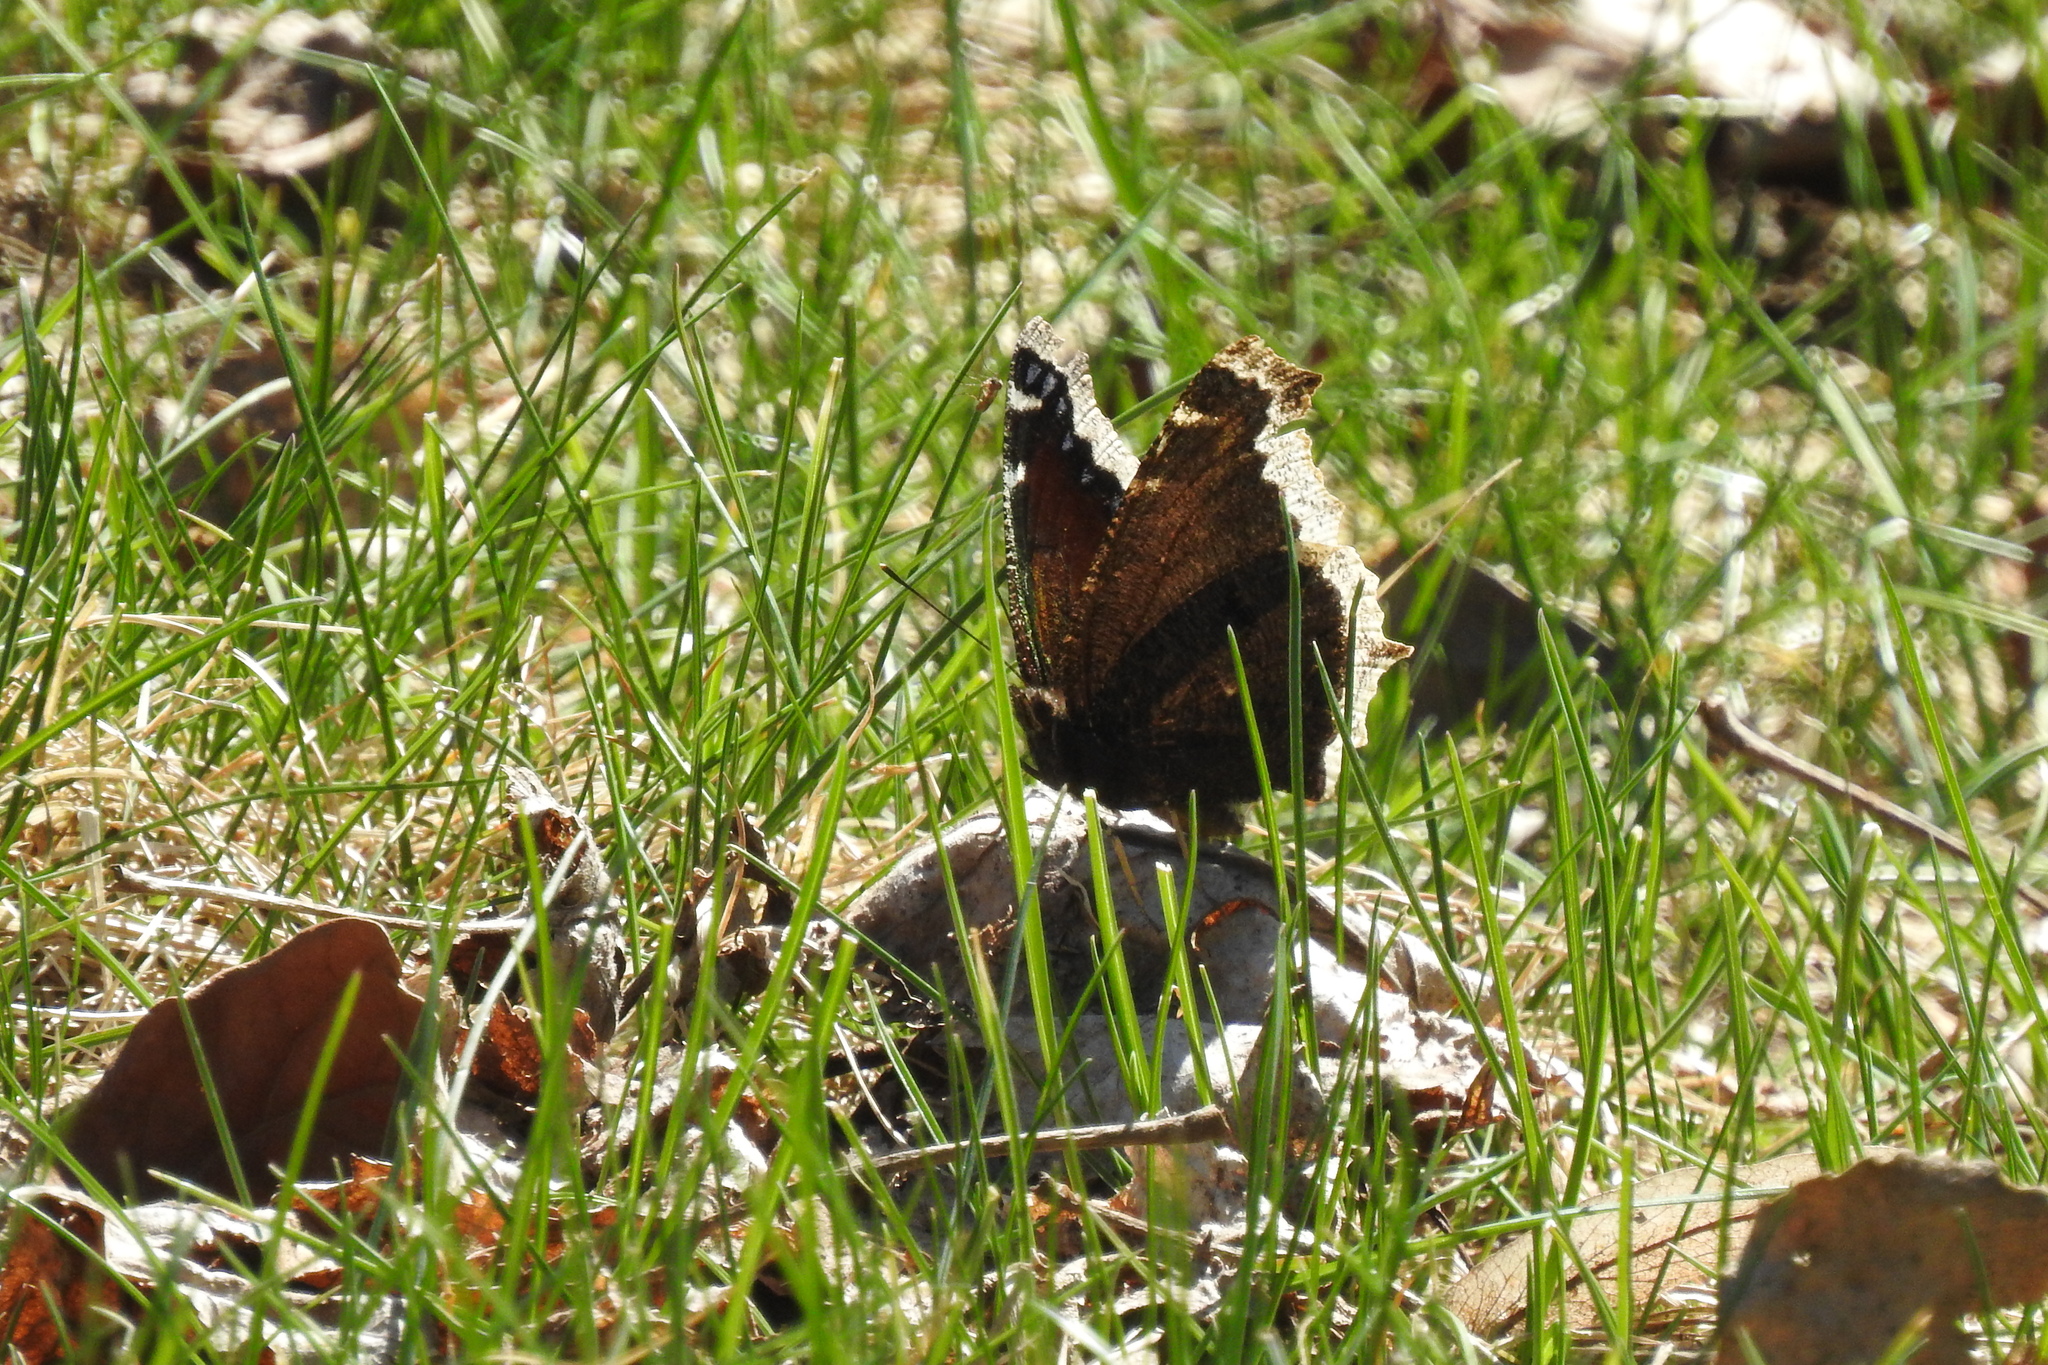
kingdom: Animalia
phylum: Arthropoda
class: Insecta
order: Lepidoptera
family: Nymphalidae
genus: Nymphalis
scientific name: Nymphalis antiopa
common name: Camberwell beauty
